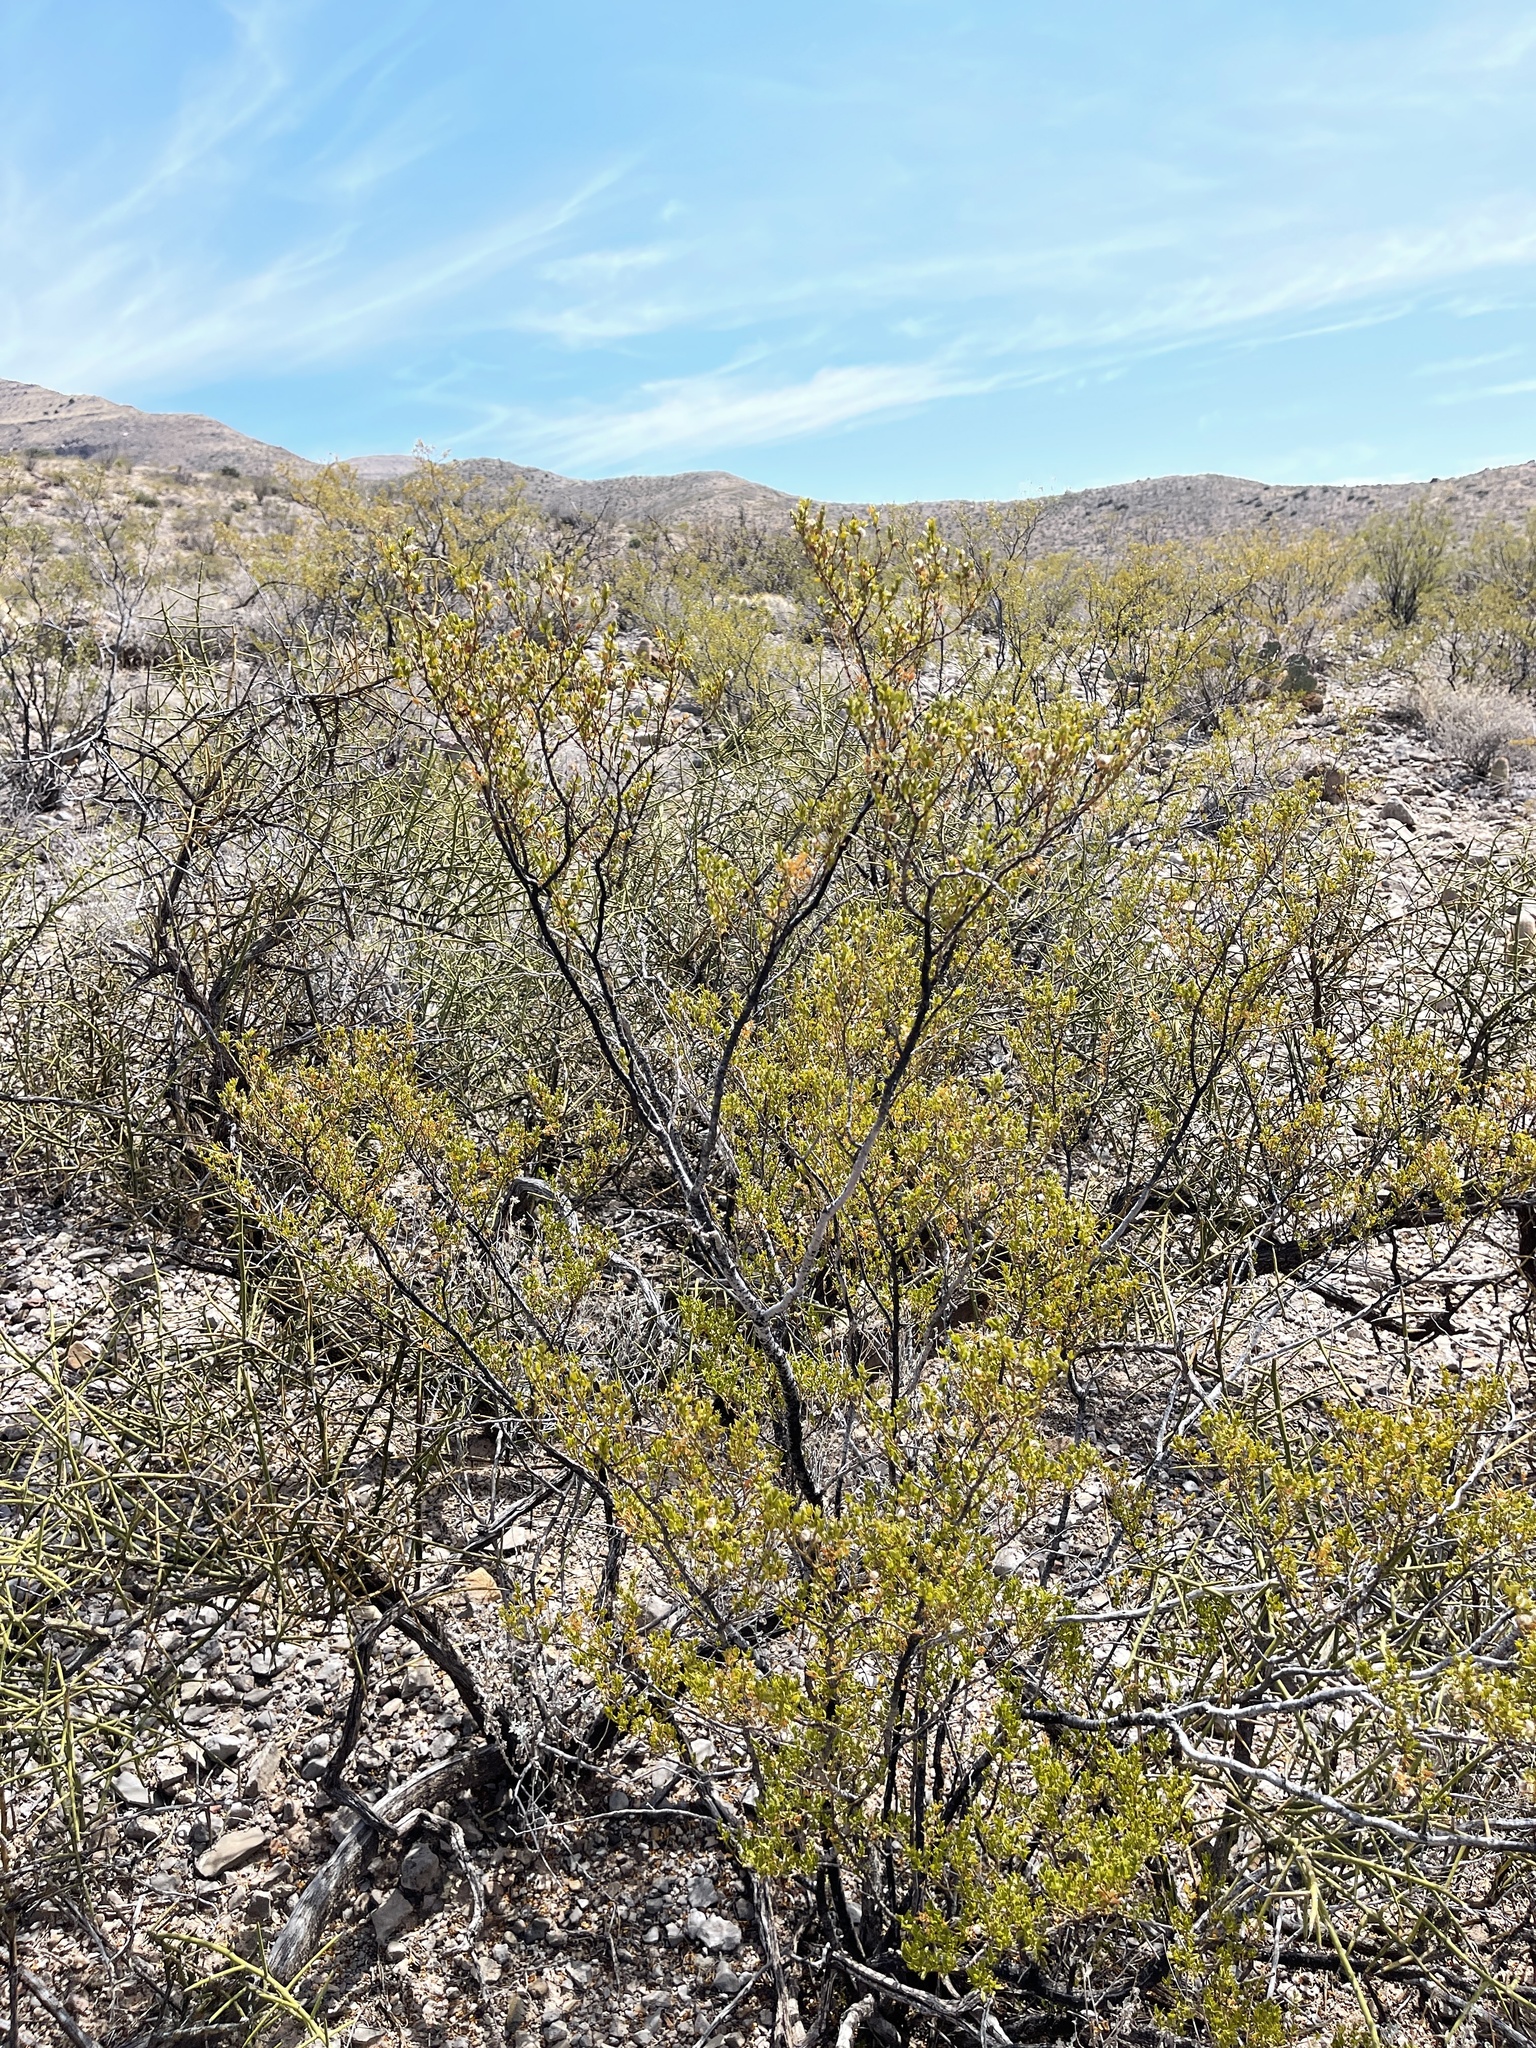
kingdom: Plantae
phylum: Tracheophyta
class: Magnoliopsida
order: Zygophyllales
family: Zygophyllaceae
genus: Larrea
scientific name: Larrea tridentata
